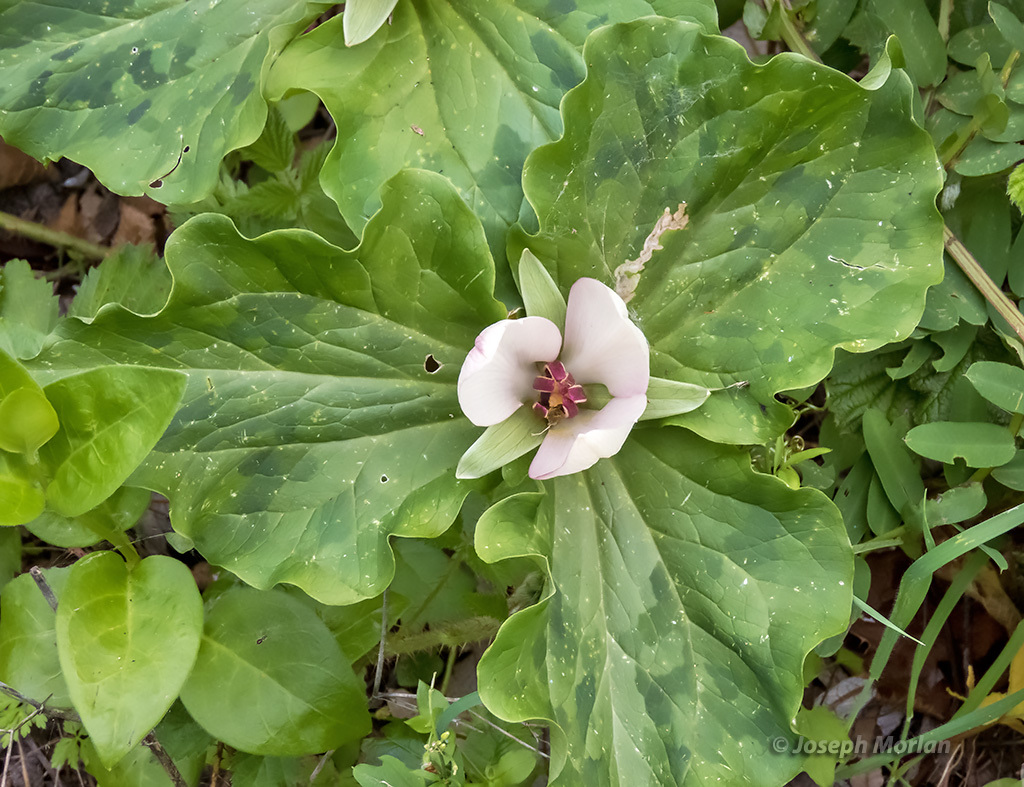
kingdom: Plantae
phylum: Tracheophyta
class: Liliopsida
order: Liliales
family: Melanthiaceae
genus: Trillium
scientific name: Trillium chloropetalum
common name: Giant trillium
